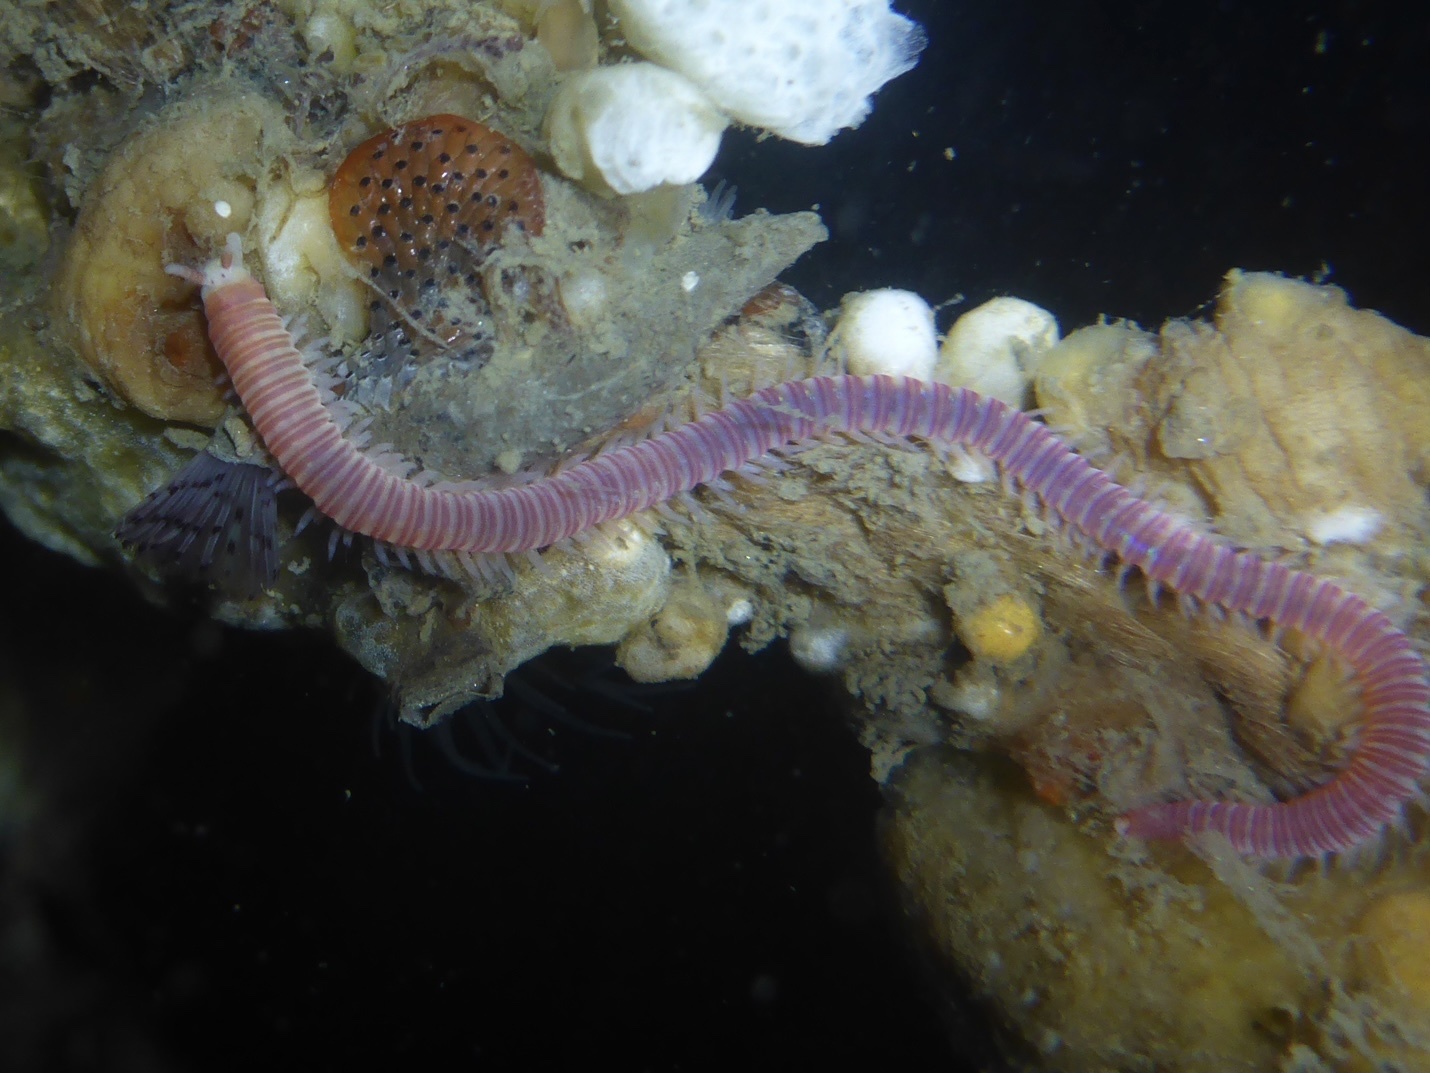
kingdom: Animalia
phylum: Annelida
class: Polychaeta
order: Eunicida
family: Dorvilleidae
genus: Dorvillea
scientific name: Dorvillea moniloceras
